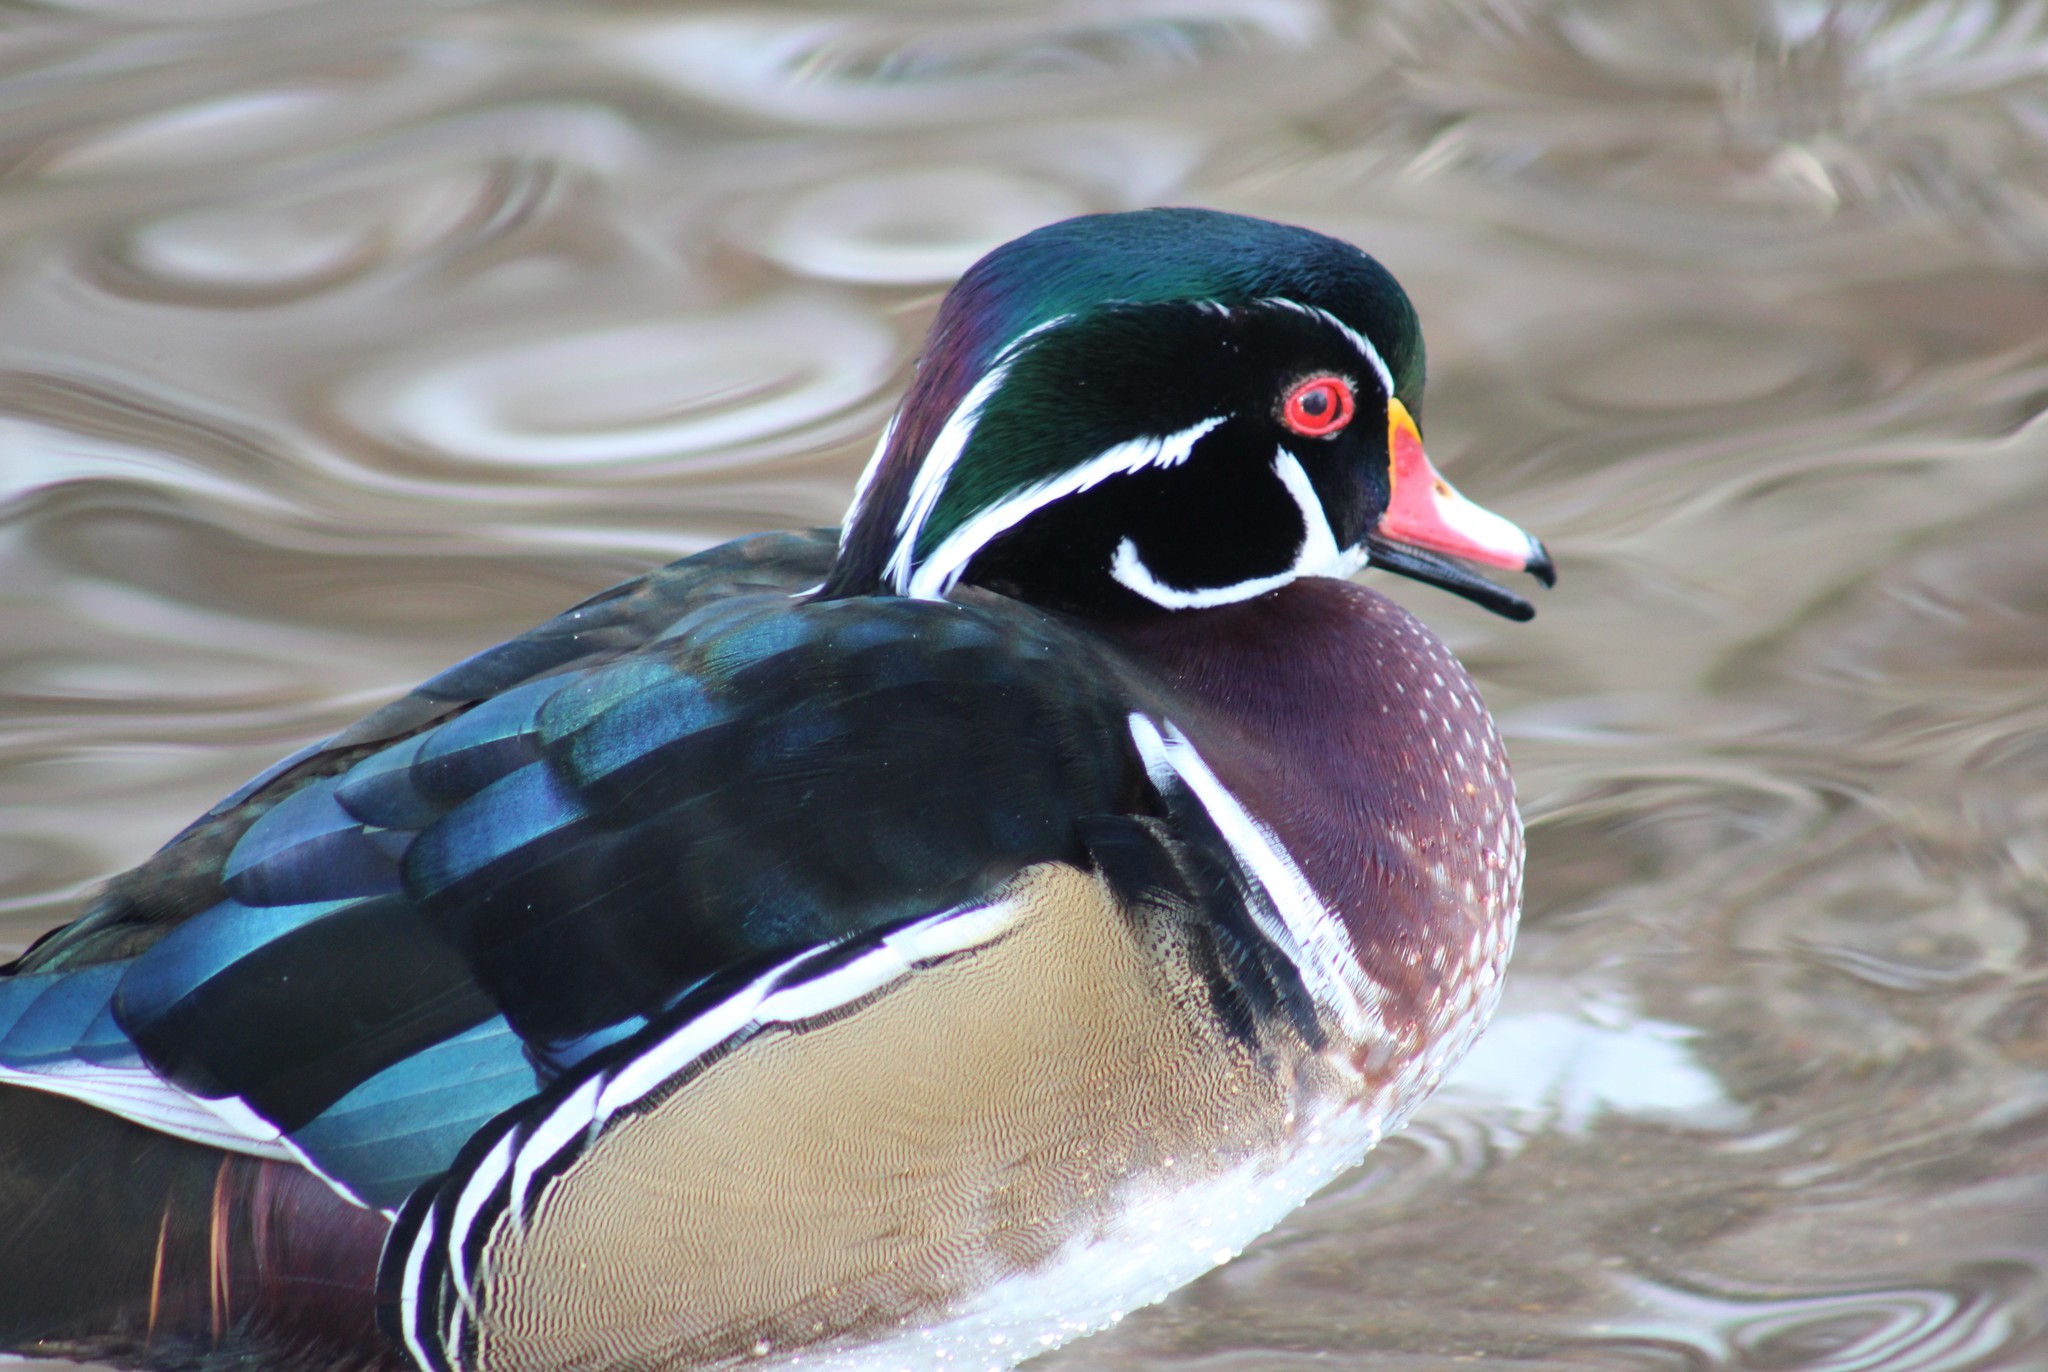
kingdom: Animalia
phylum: Chordata
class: Aves
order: Anseriformes
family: Anatidae
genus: Aix
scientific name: Aix sponsa
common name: Wood duck
